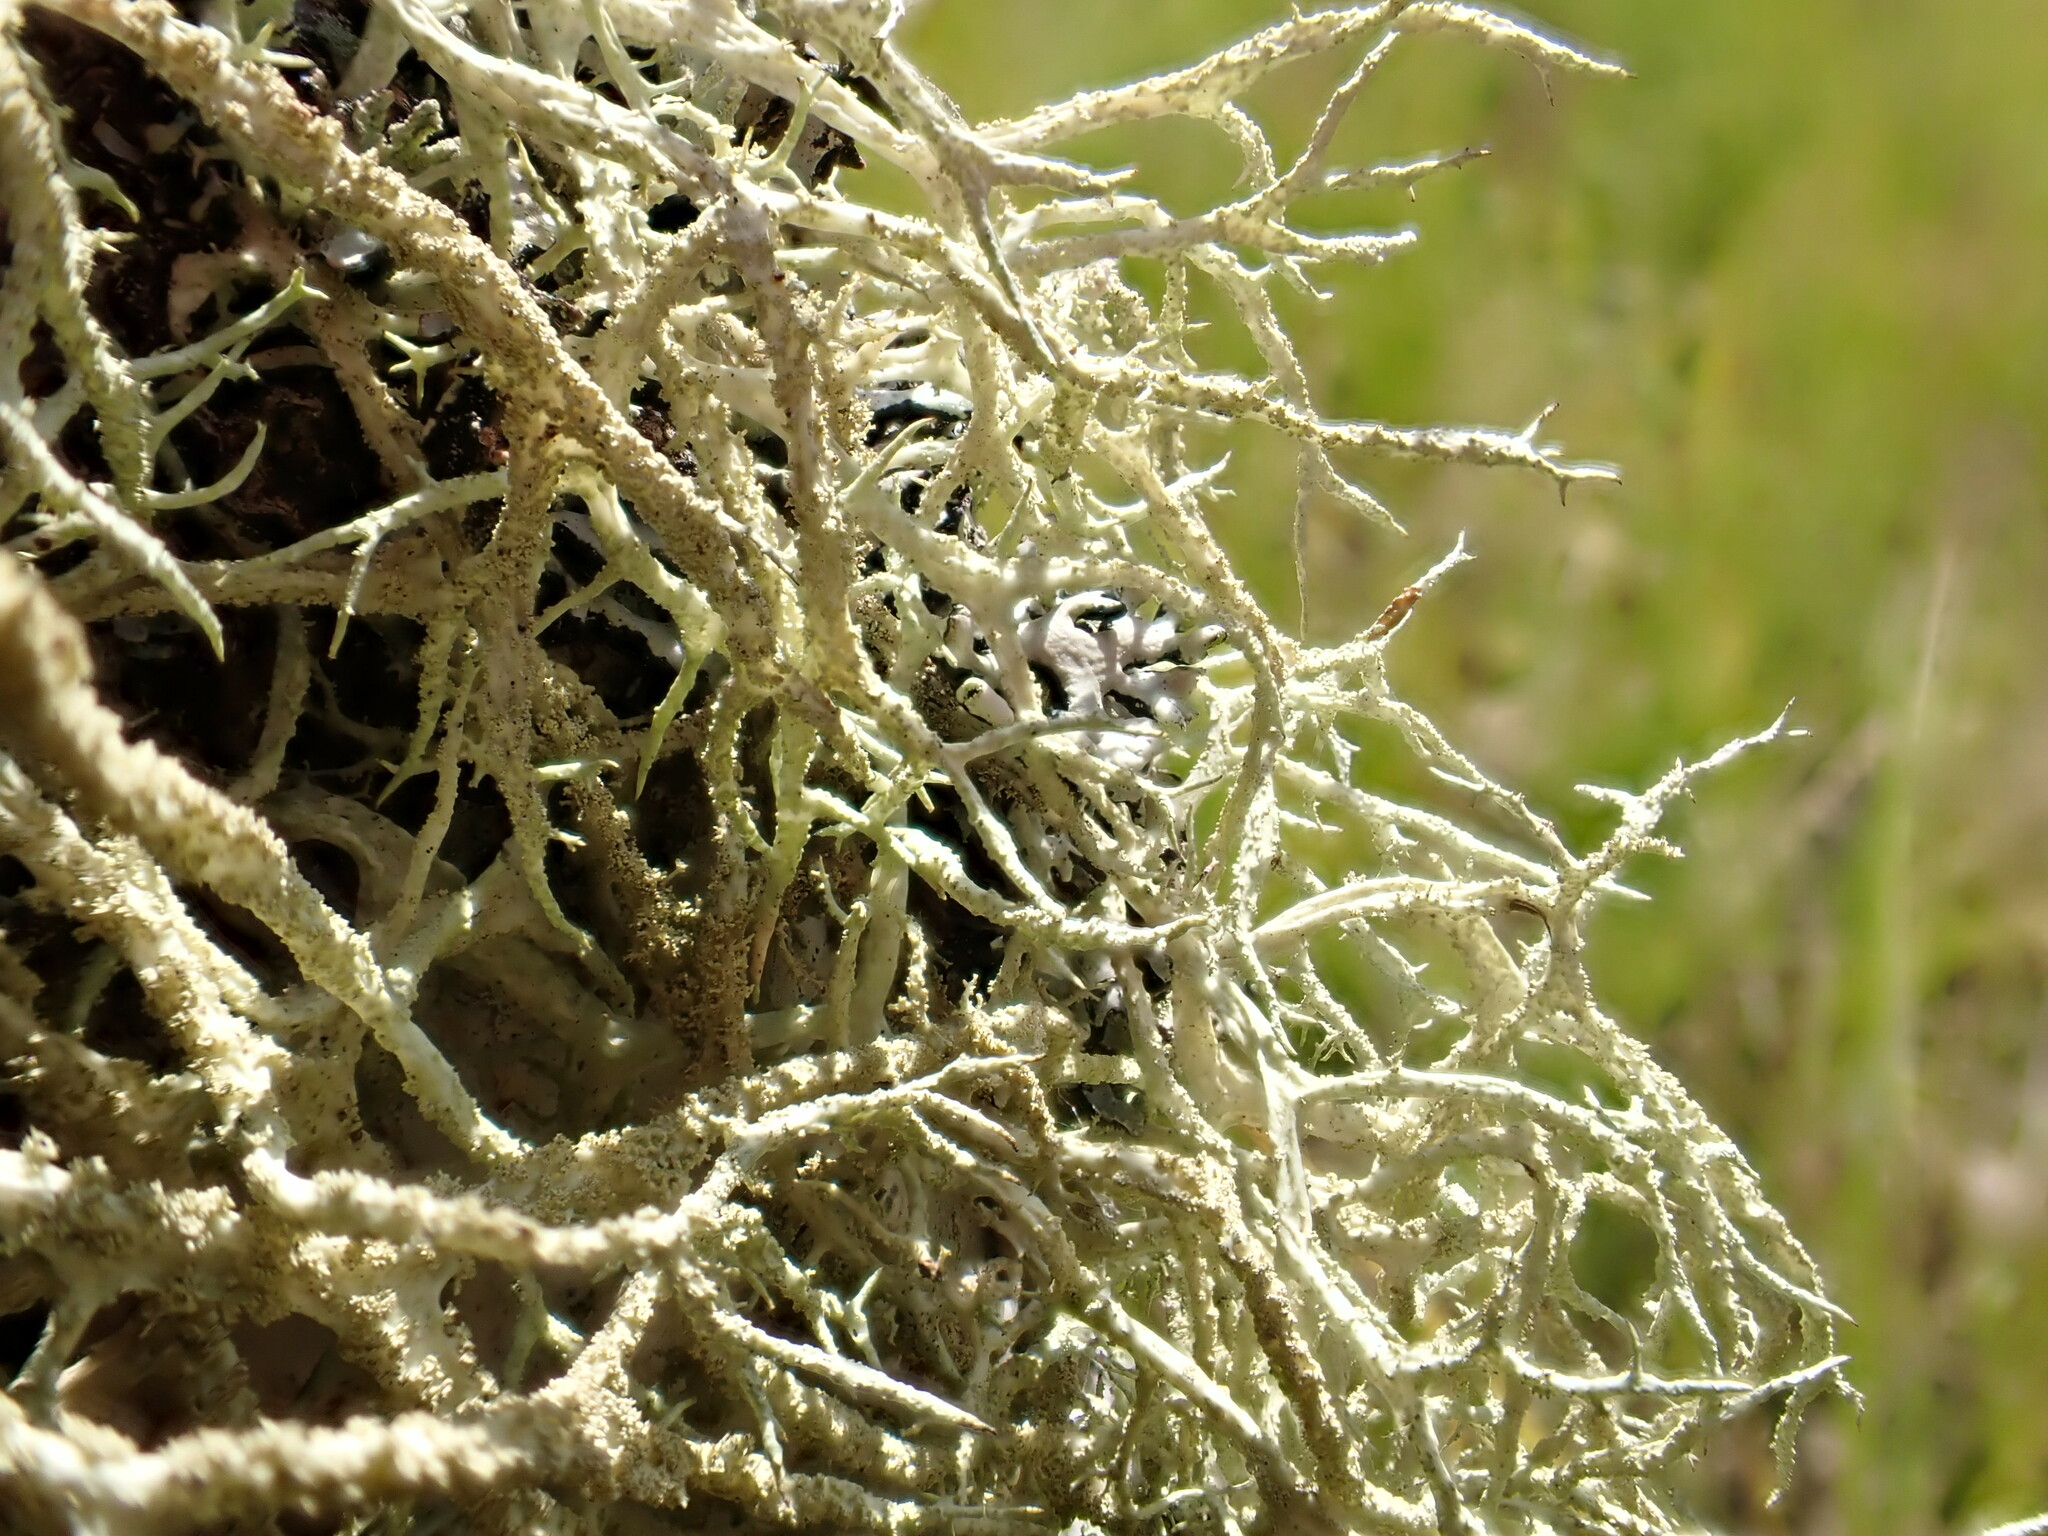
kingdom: Fungi
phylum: Ascomycota
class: Lecanoromycetes
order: Lecanorales
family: Parmeliaceae
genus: Evernia
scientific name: Evernia mesomorpha
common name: Boreal oak moss lichen
